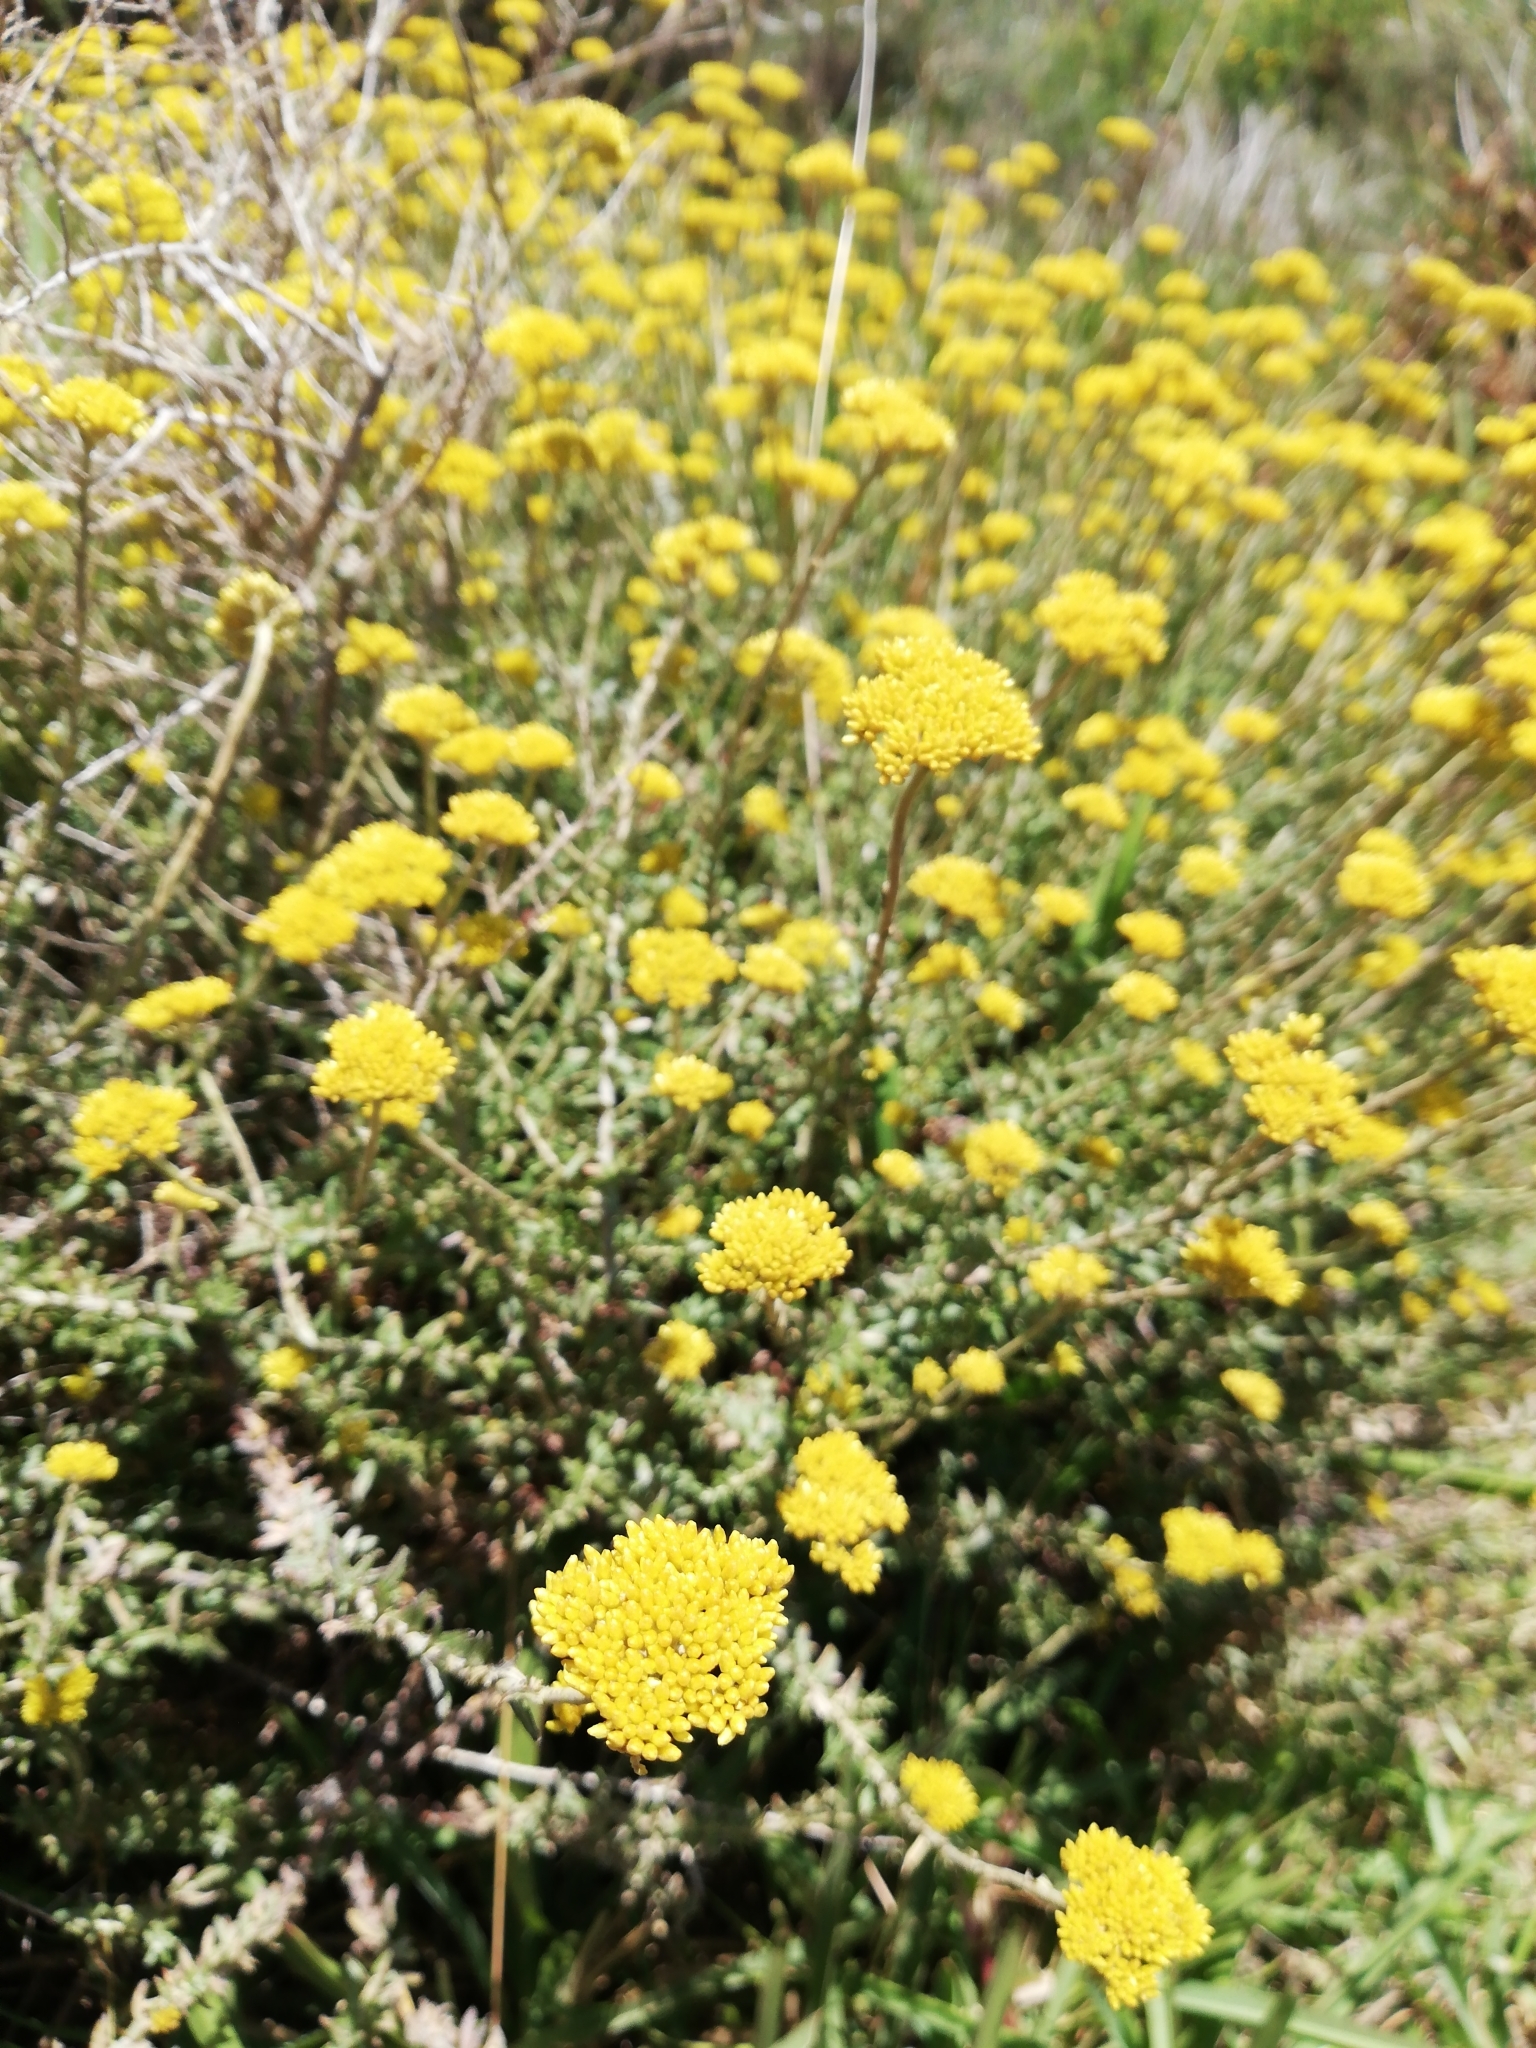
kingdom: Plantae
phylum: Tracheophyta
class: Magnoliopsida
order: Asterales
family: Asteraceae
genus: Helichrysum
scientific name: Helichrysum cymosum
